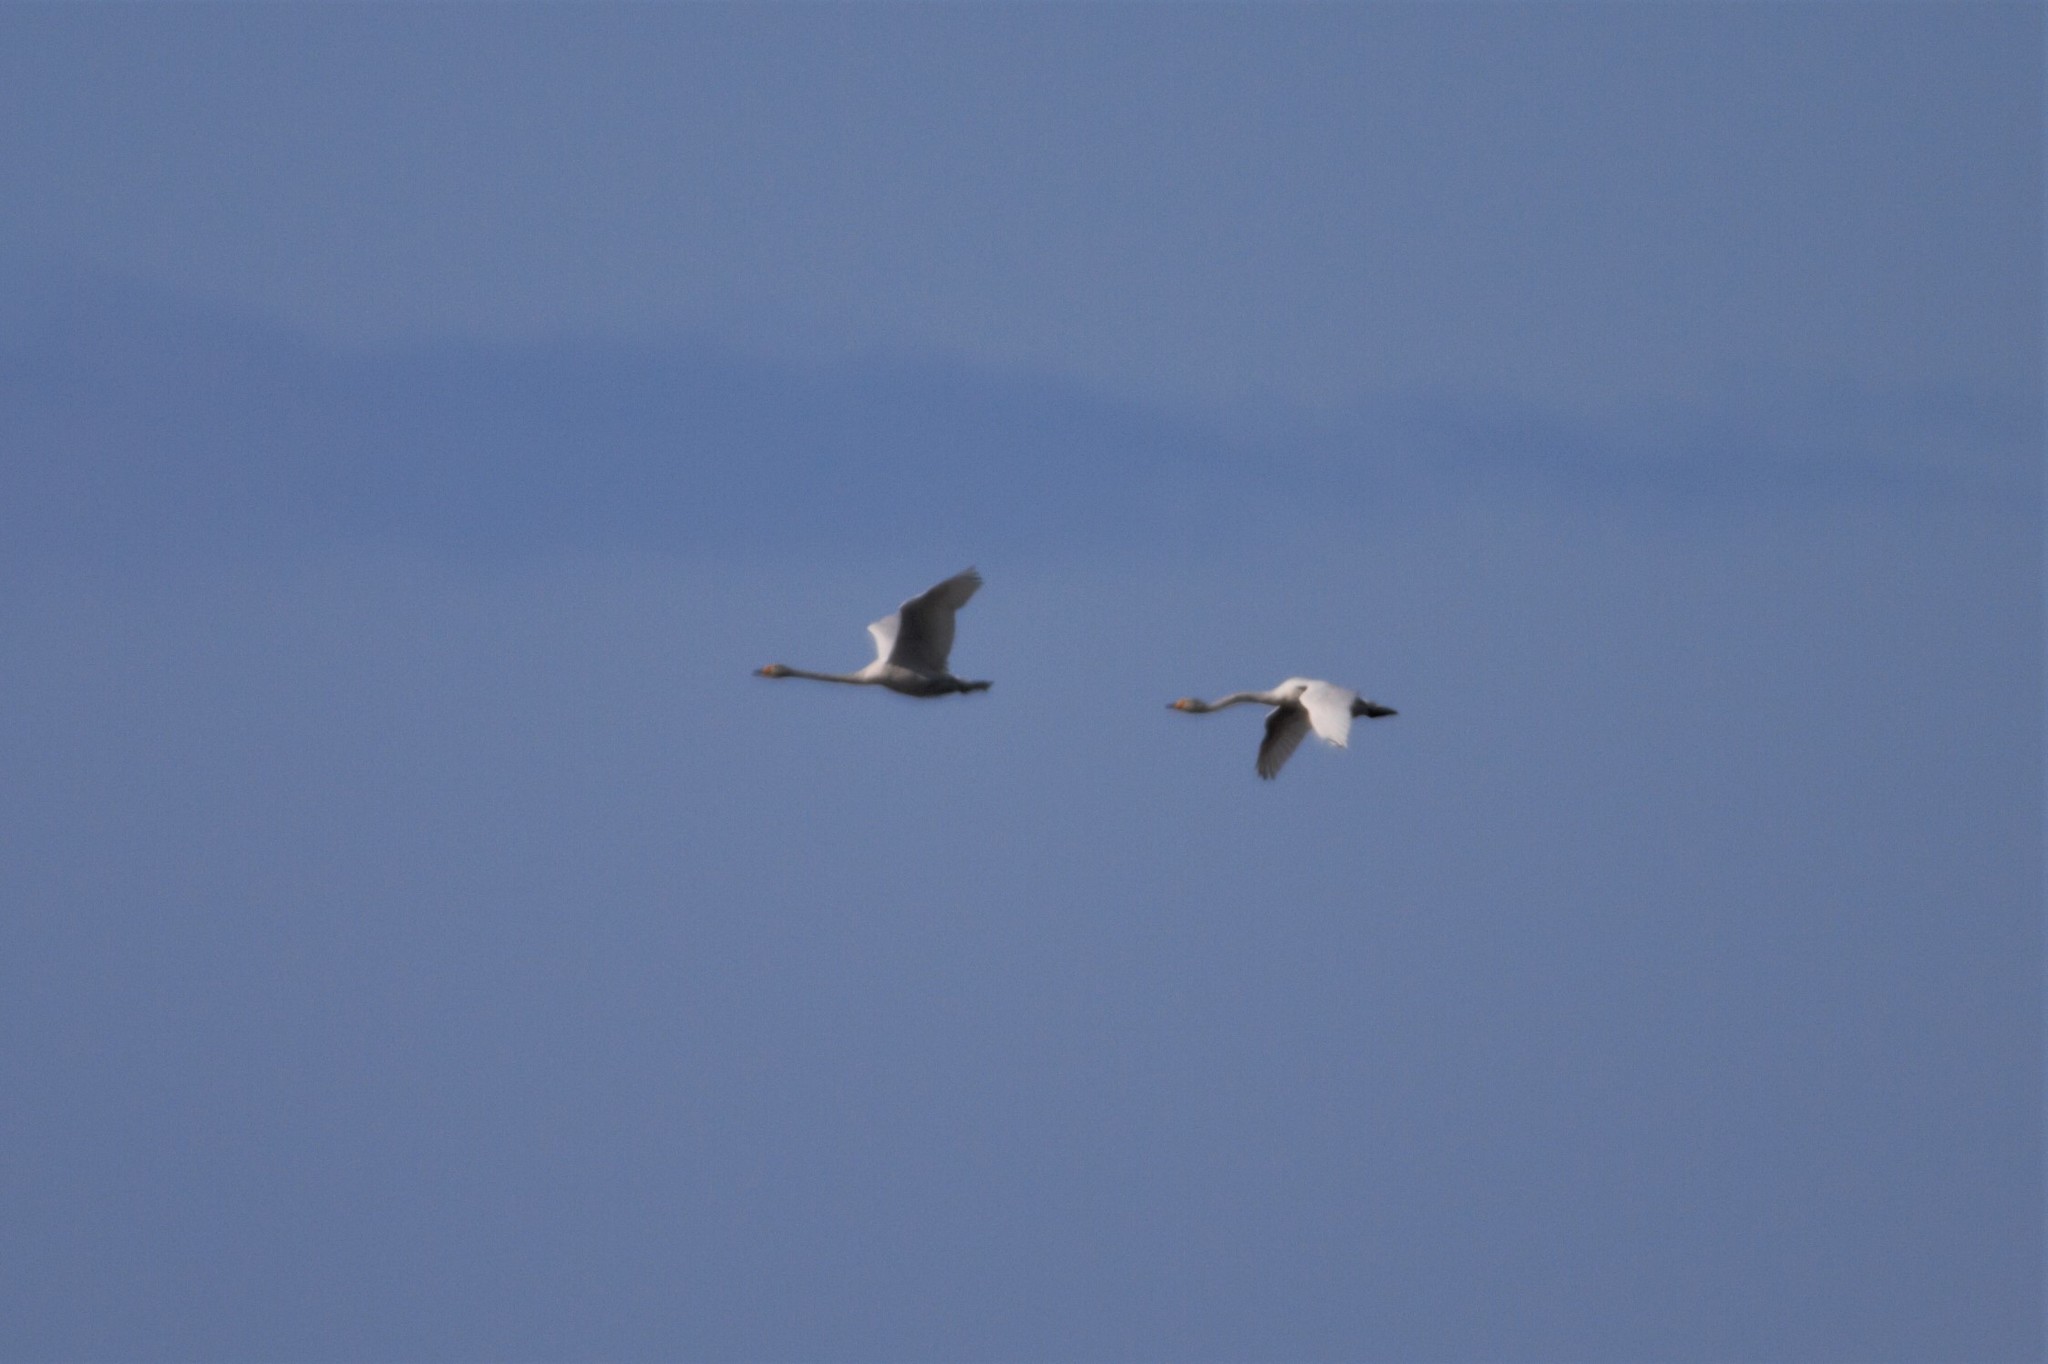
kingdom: Animalia
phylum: Chordata
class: Aves
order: Anseriformes
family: Anatidae
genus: Cygnus
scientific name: Cygnus cygnus
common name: Whooper swan
